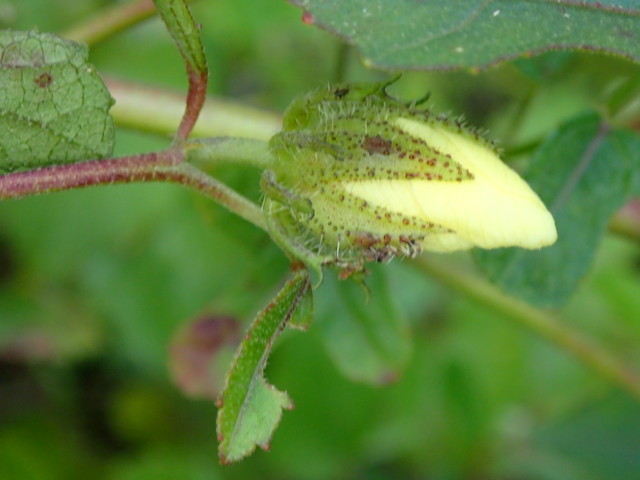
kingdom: Plantae
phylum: Tracheophyta
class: Magnoliopsida
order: Malvales
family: Malvaceae
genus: Hibiscus
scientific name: Hibiscus aculeatus
